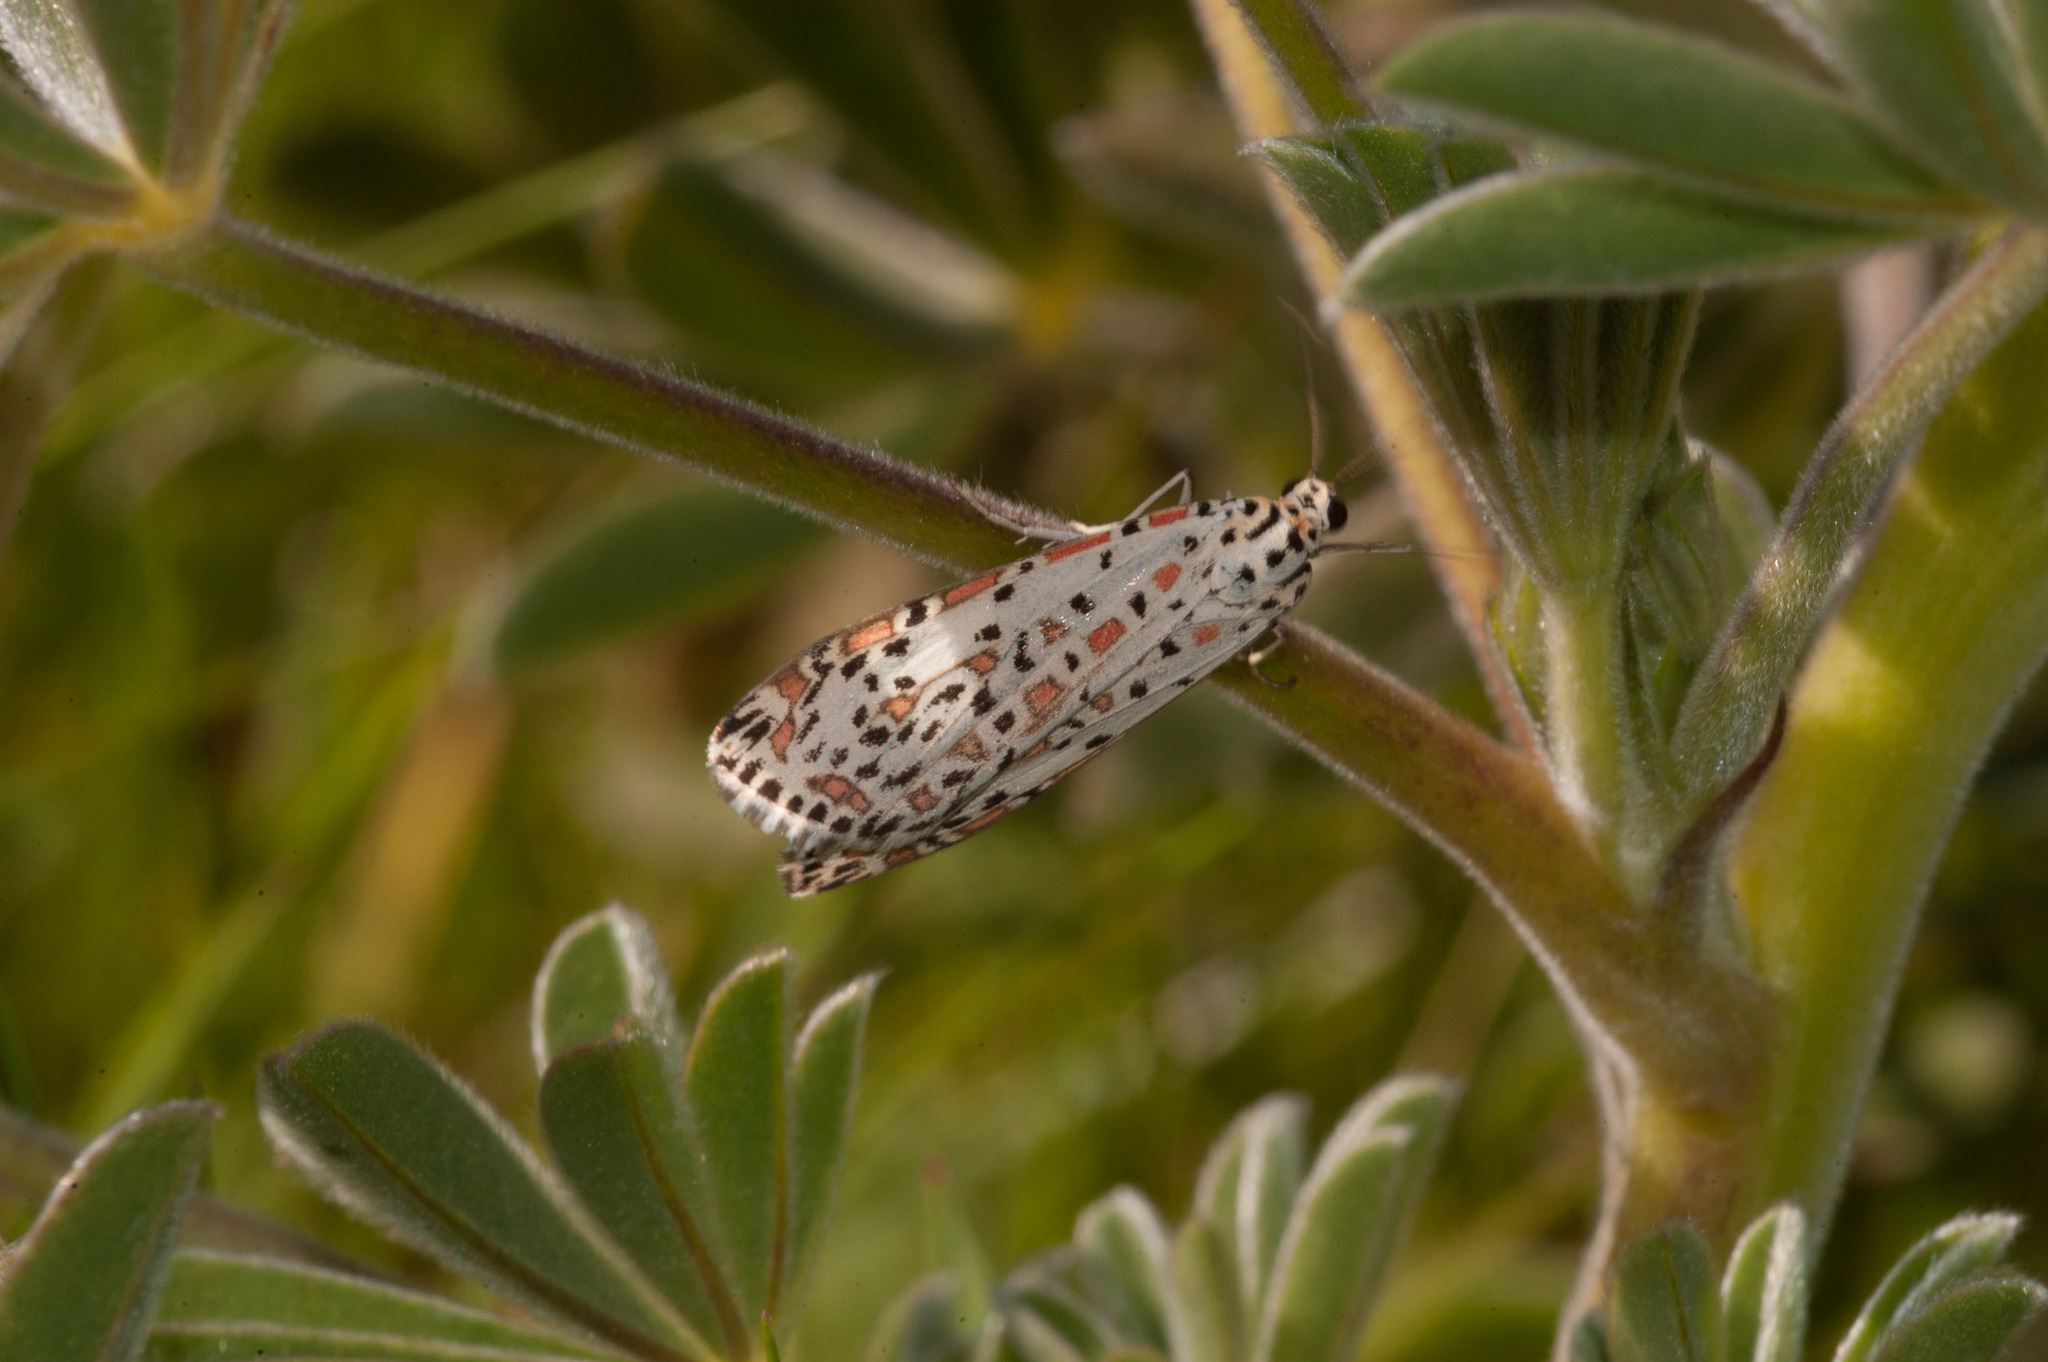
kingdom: Animalia
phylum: Arthropoda
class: Insecta
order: Lepidoptera
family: Erebidae
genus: Utetheisa
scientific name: Utetheisa pulchelloides
